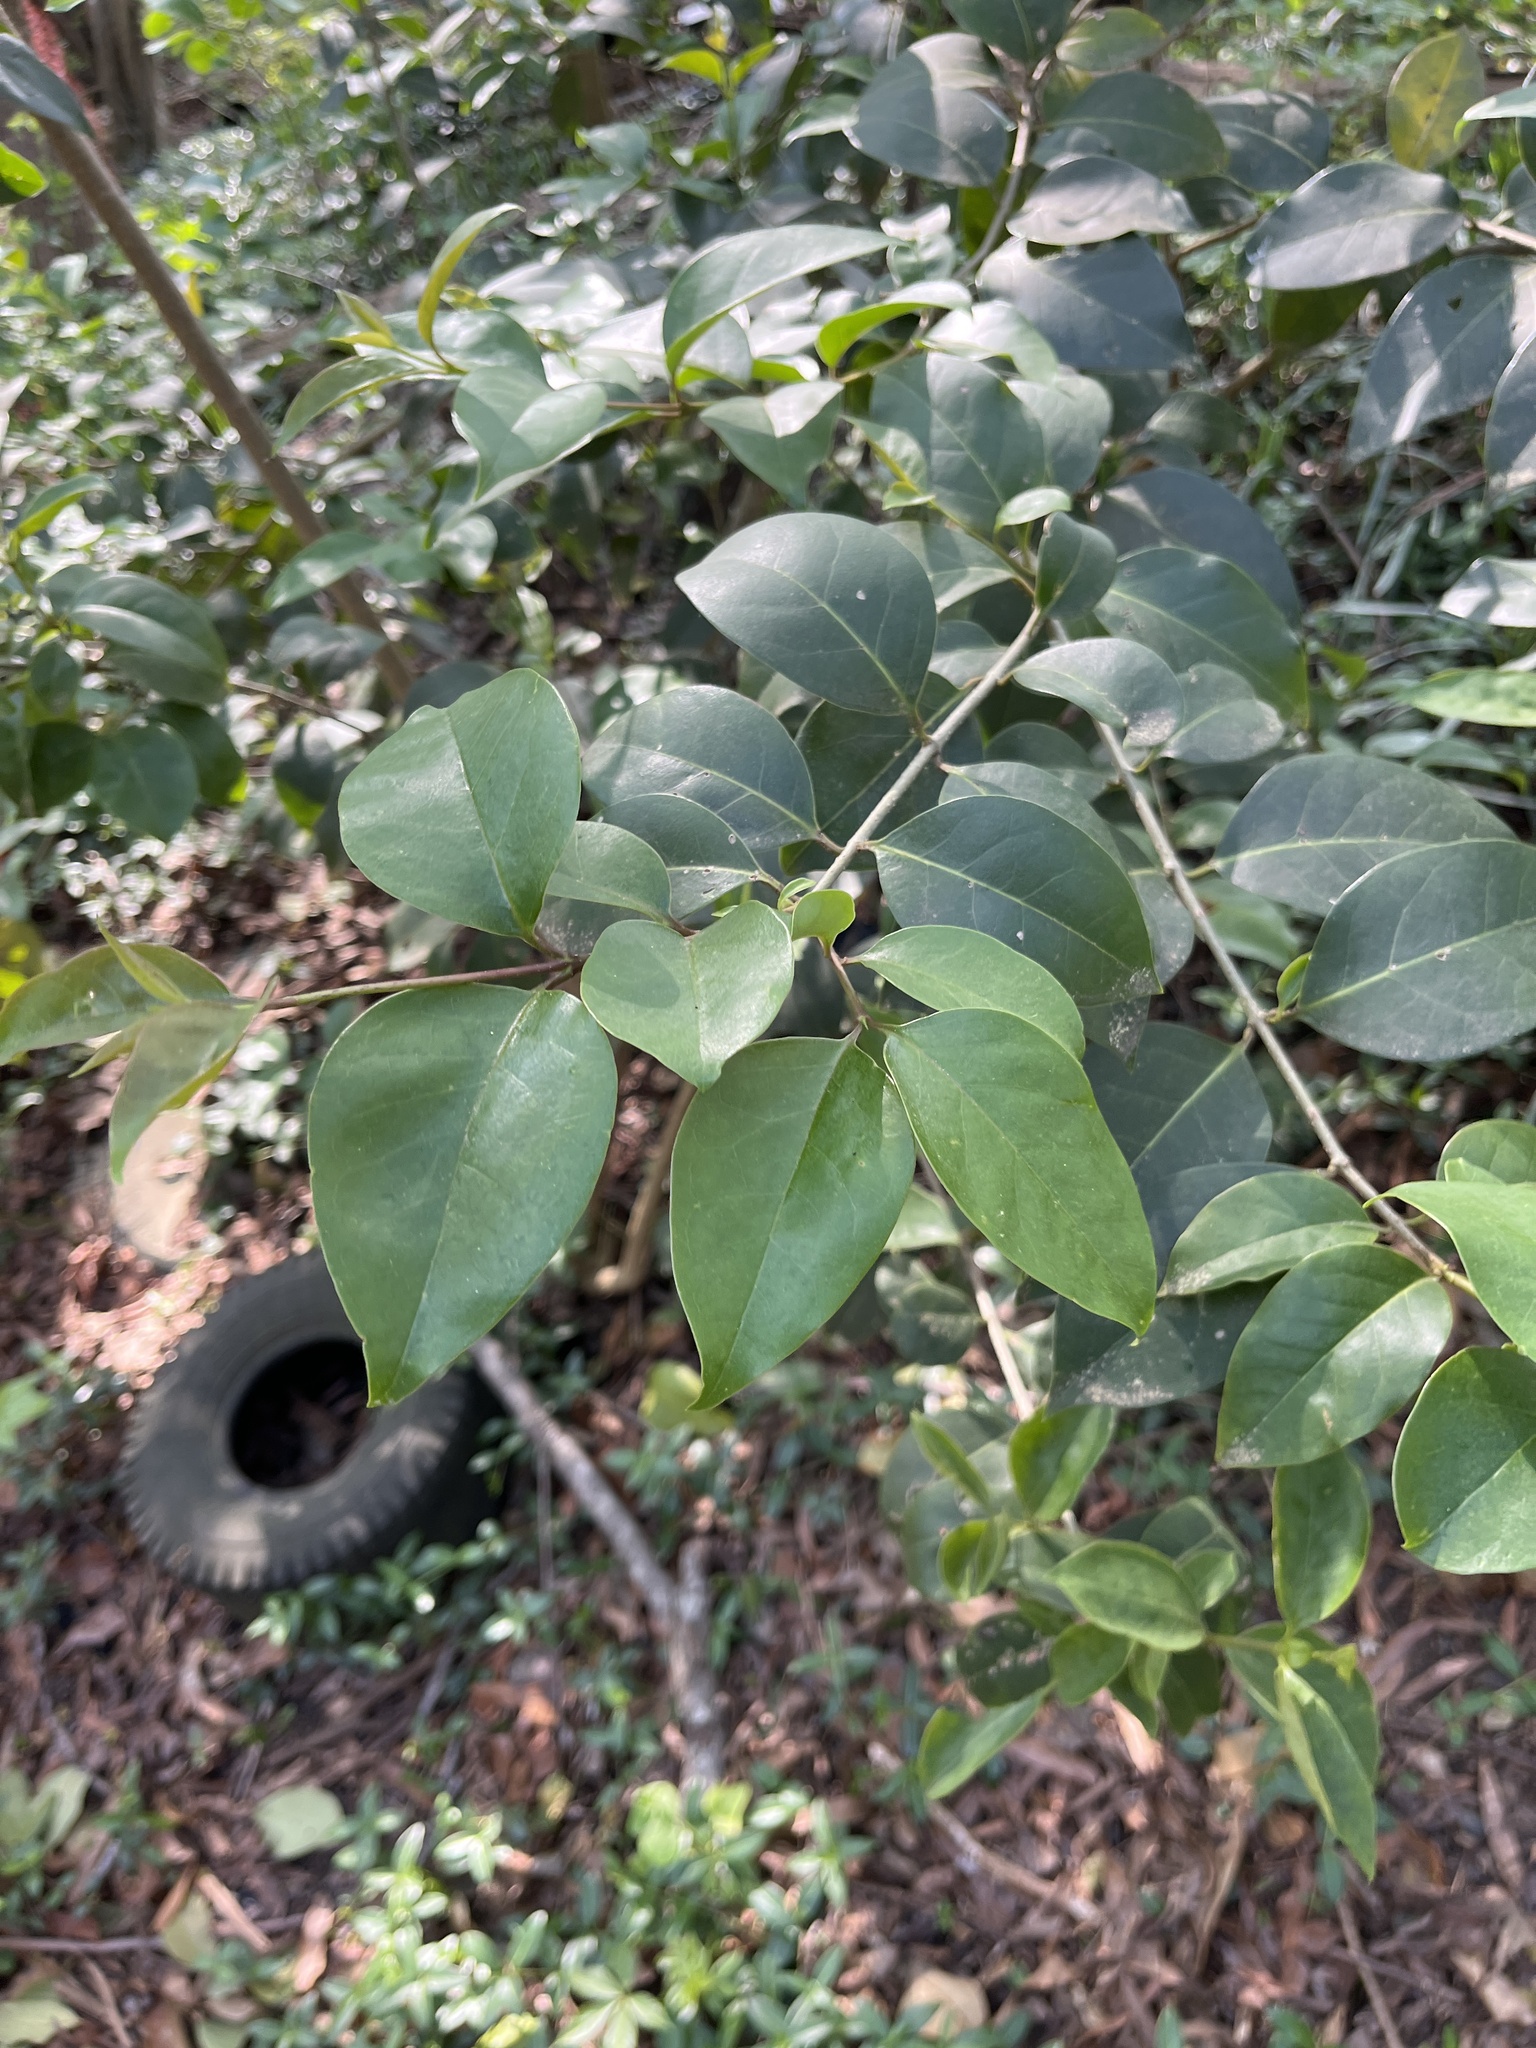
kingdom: Plantae
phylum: Tracheophyta
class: Magnoliopsida
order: Lamiales
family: Oleaceae
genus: Ligustrum
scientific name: Ligustrum lucidum
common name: Glossy privet
